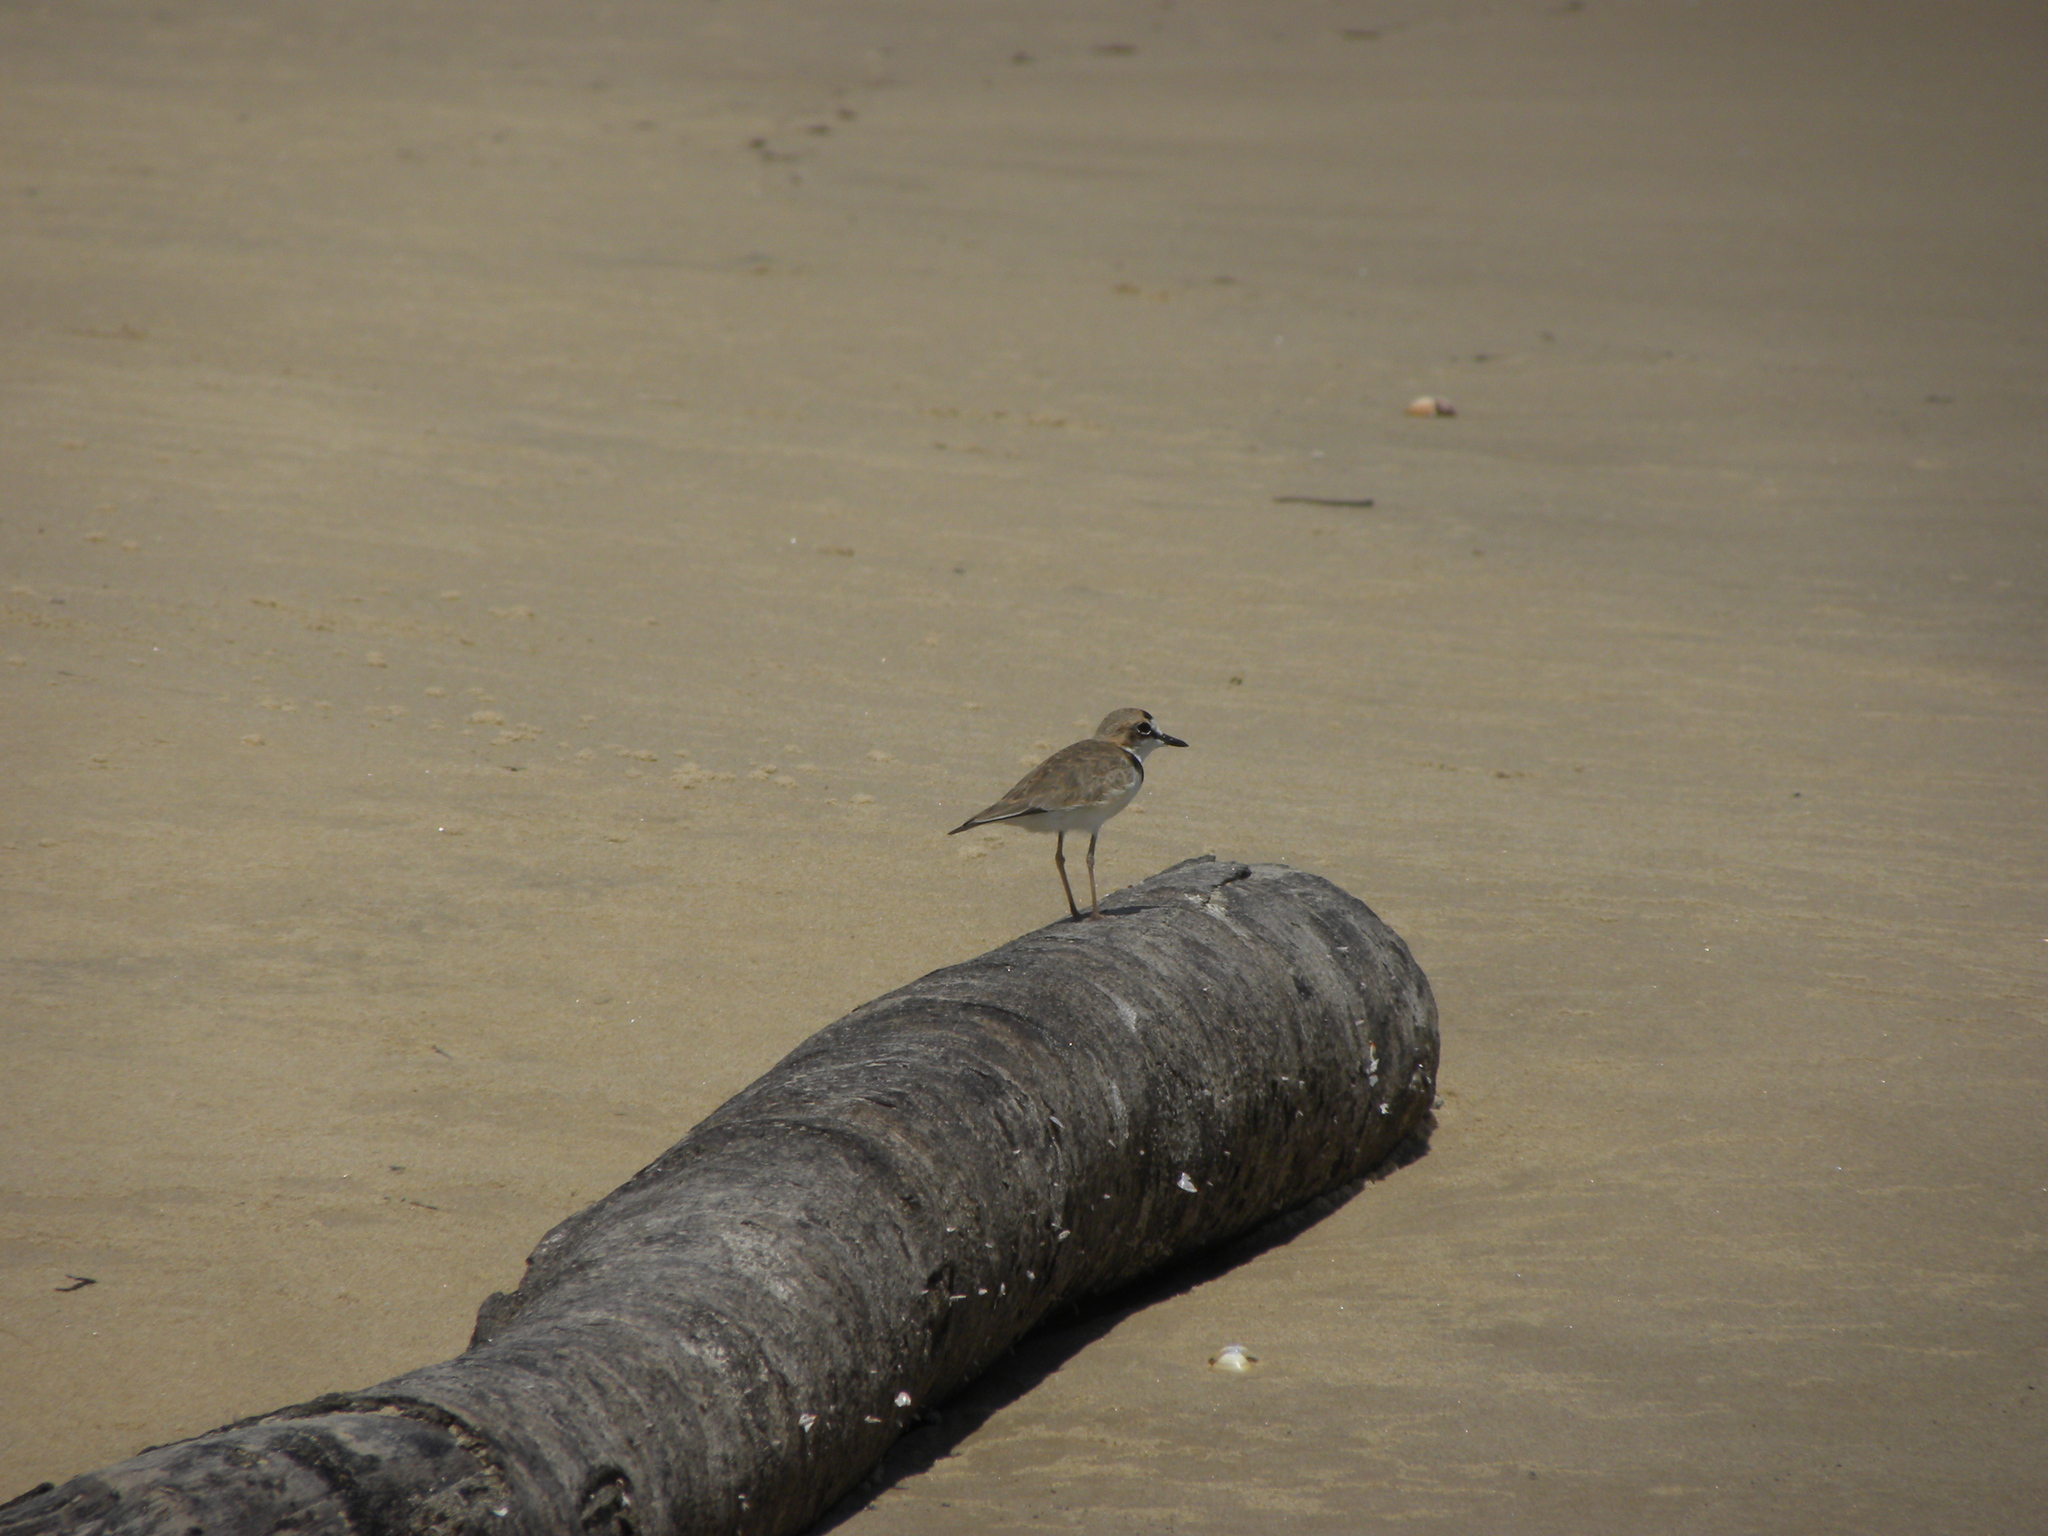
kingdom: Animalia
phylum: Chordata
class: Aves
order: Charadriiformes
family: Charadriidae
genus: Anarhynchus
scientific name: Anarhynchus
